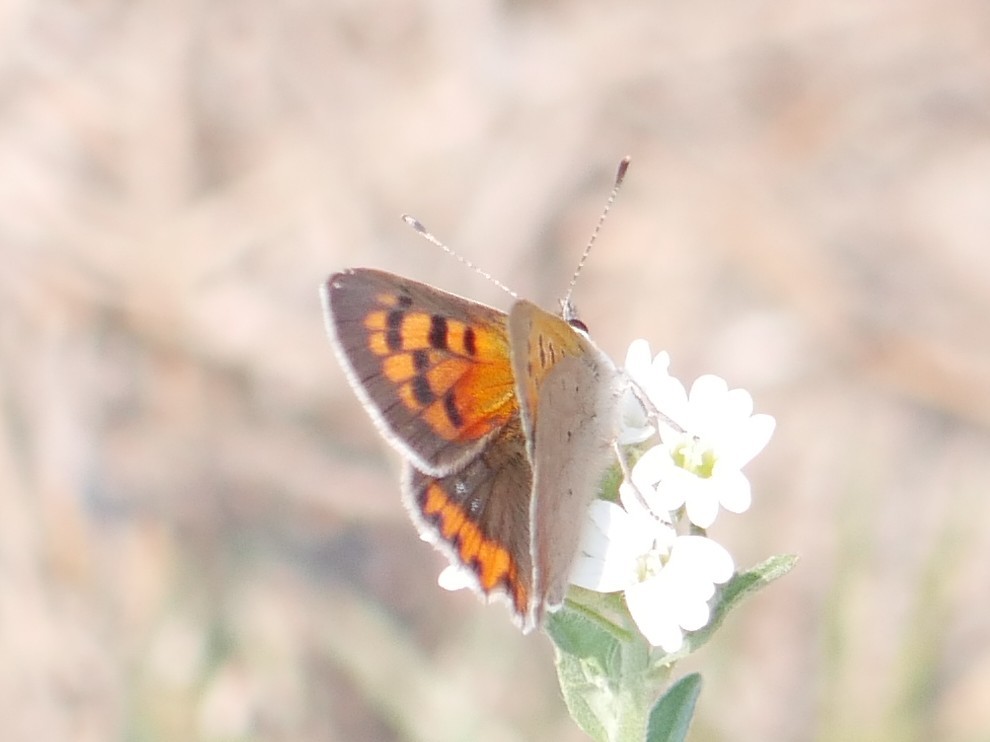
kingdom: Animalia
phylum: Arthropoda
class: Insecta
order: Lepidoptera
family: Lycaenidae
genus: Lycaena
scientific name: Lycaena phlaeas
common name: Small copper
